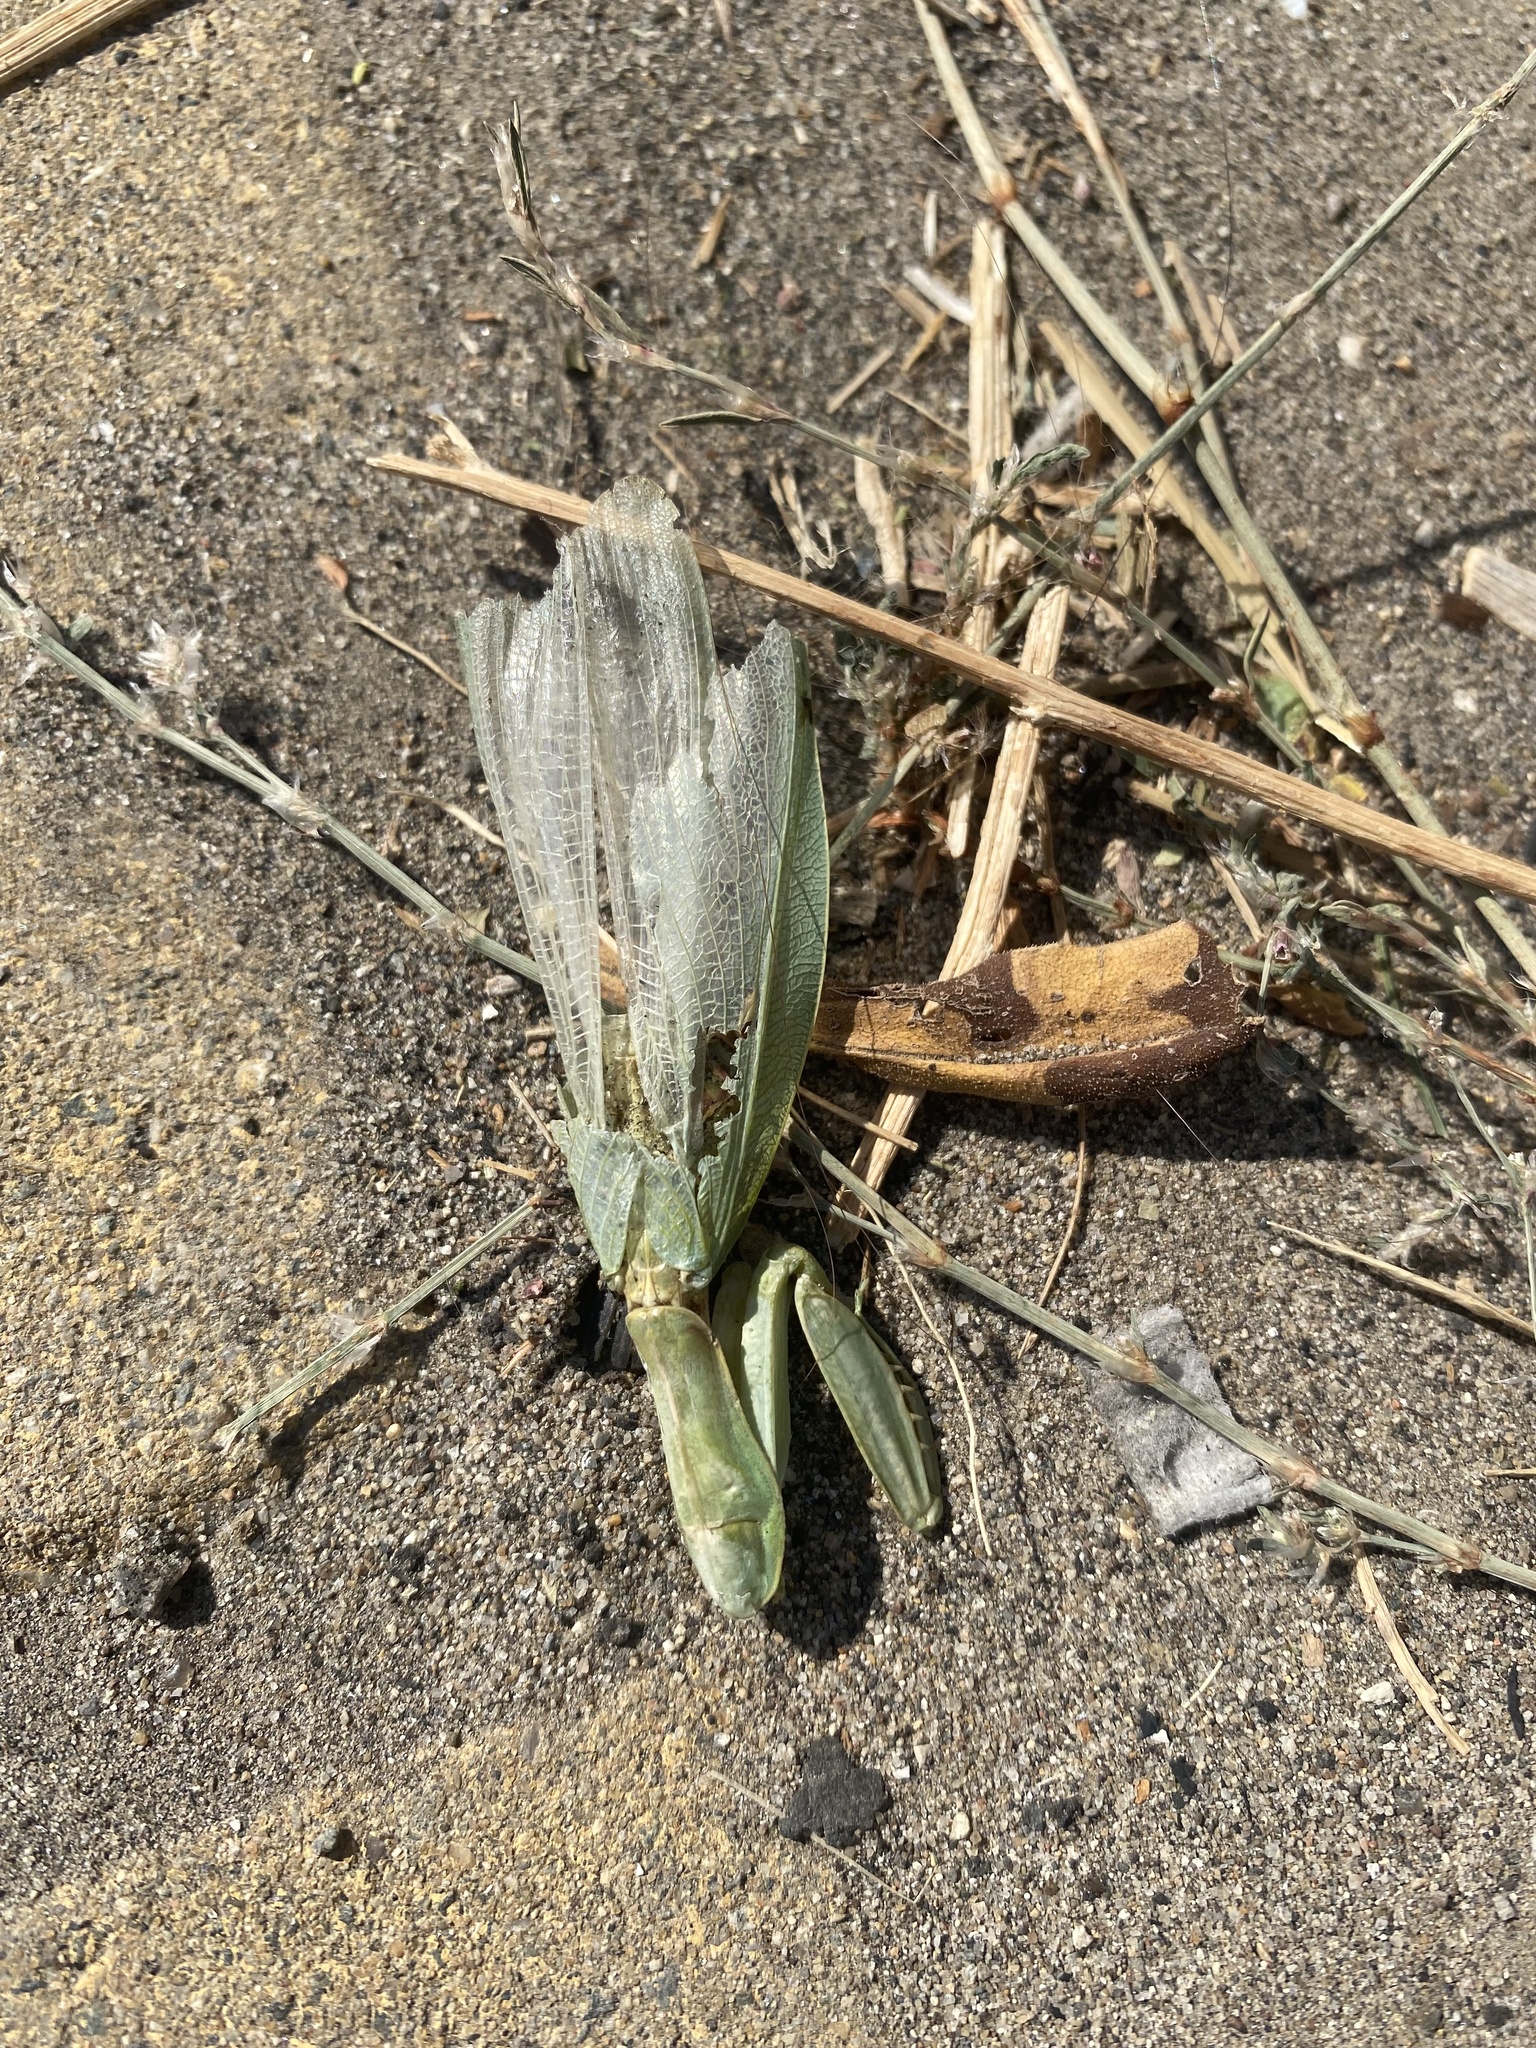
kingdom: Animalia
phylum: Arthropoda
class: Insecta
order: Mantodea
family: Mantidae
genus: Hierodula
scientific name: Hierodula transcaucasica
